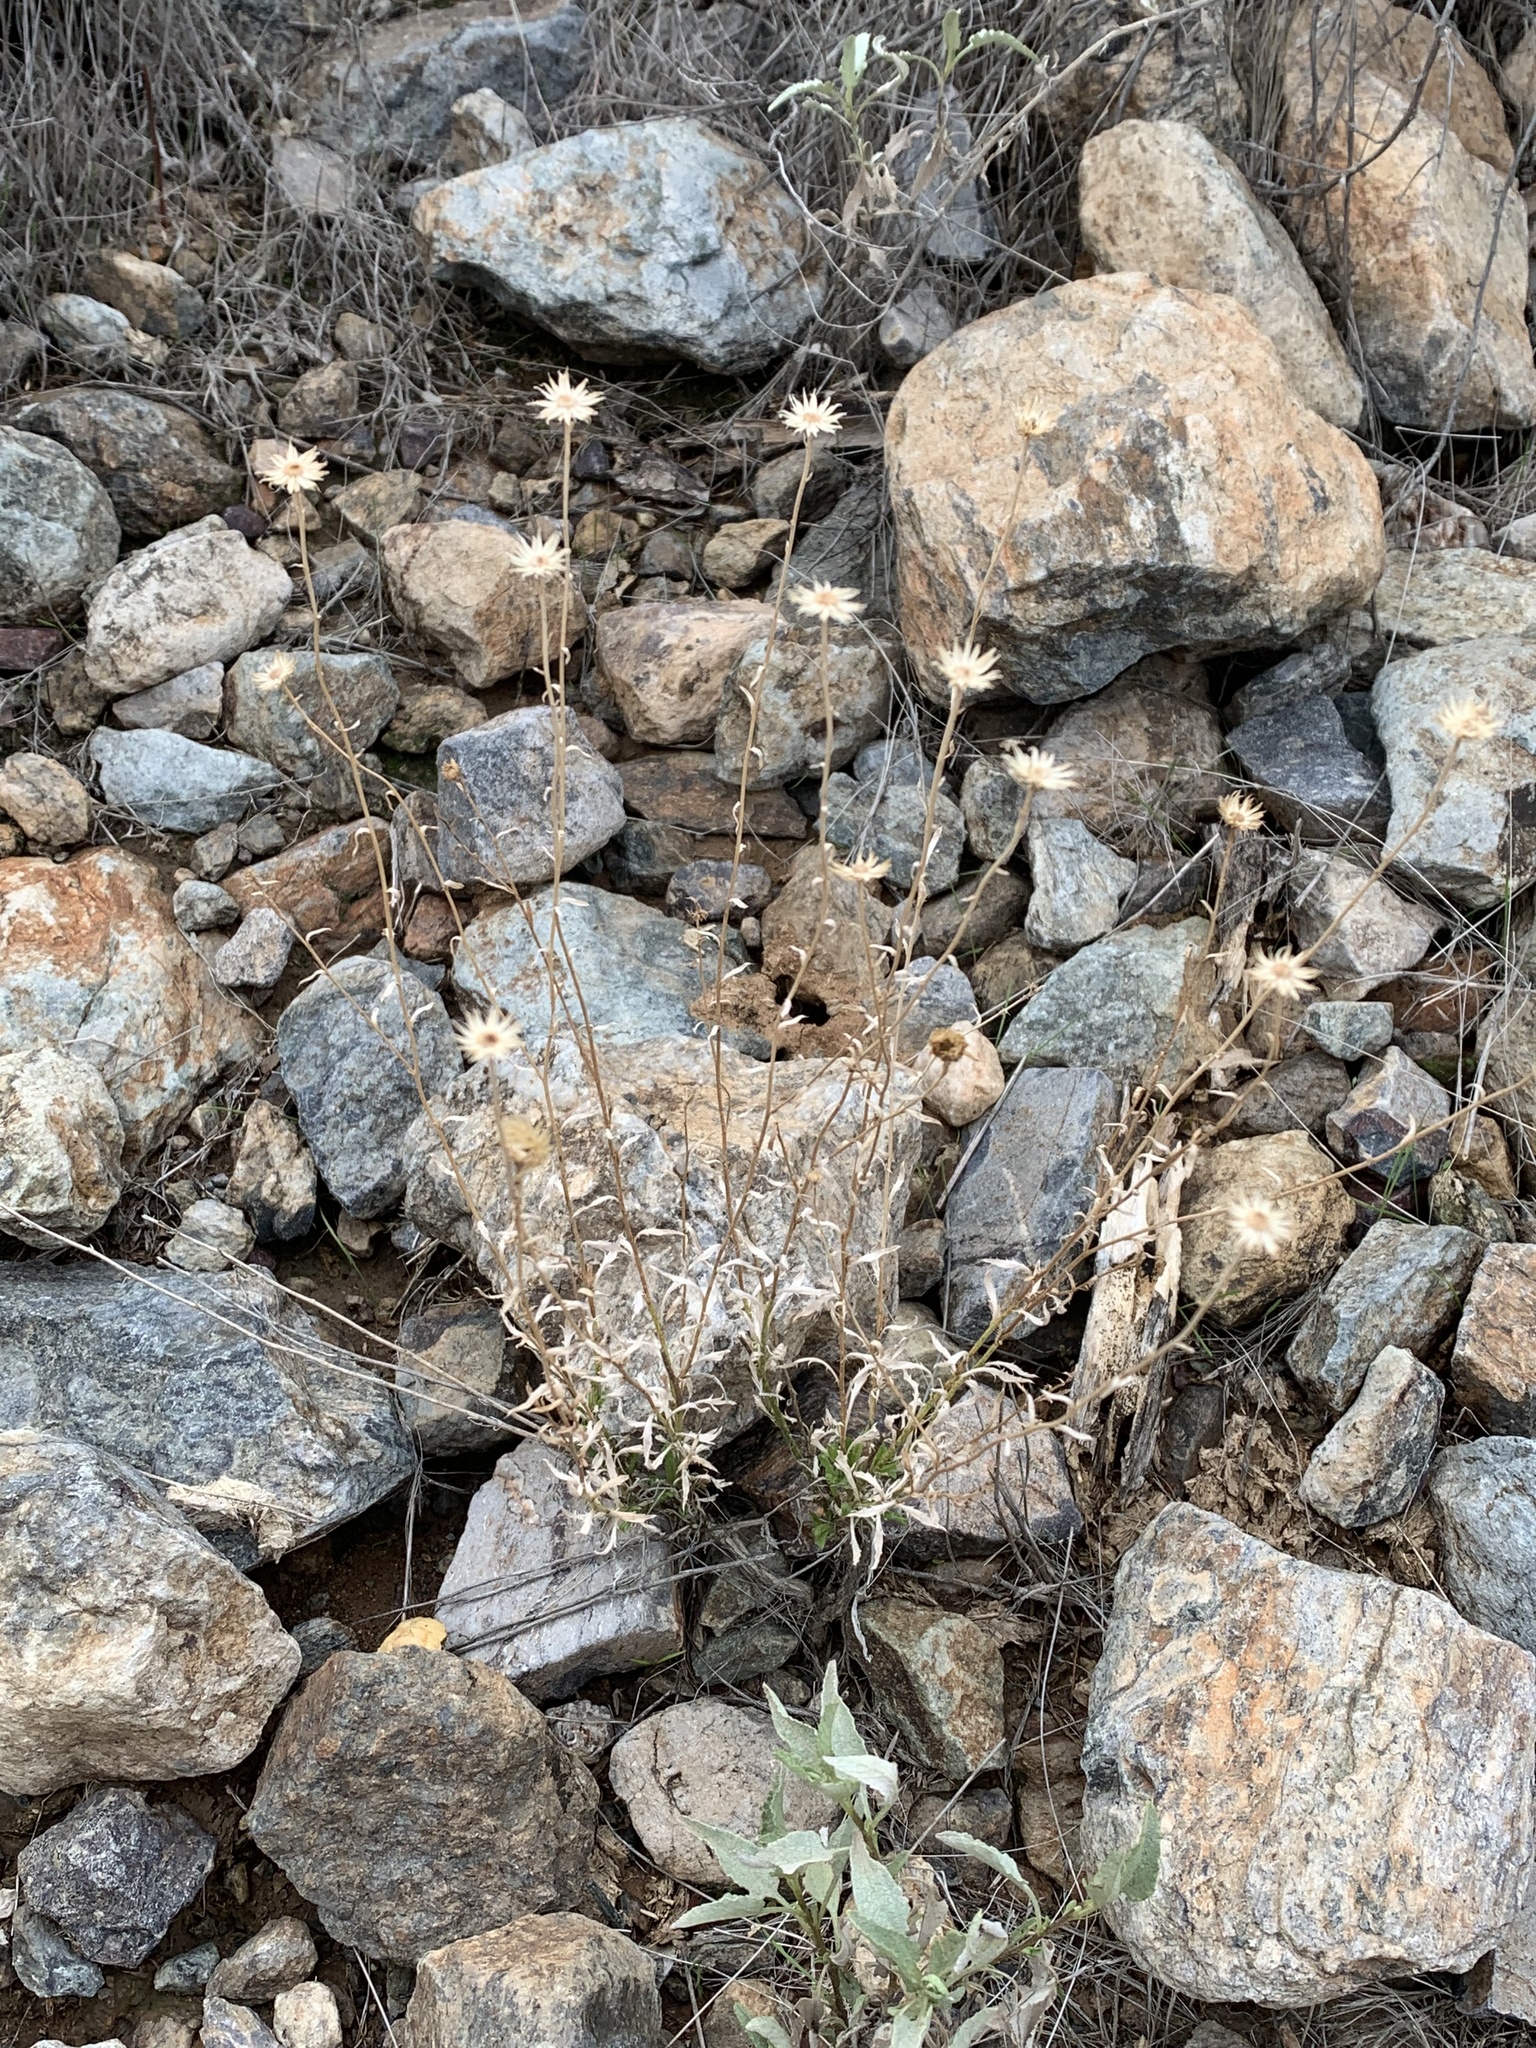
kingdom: Plantae
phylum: Tracheophyta
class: Magnoliopsida
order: Asterales
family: Asteraceae
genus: Xanthisma
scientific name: Xanthisma spinulosum
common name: Spiny goldenweed
